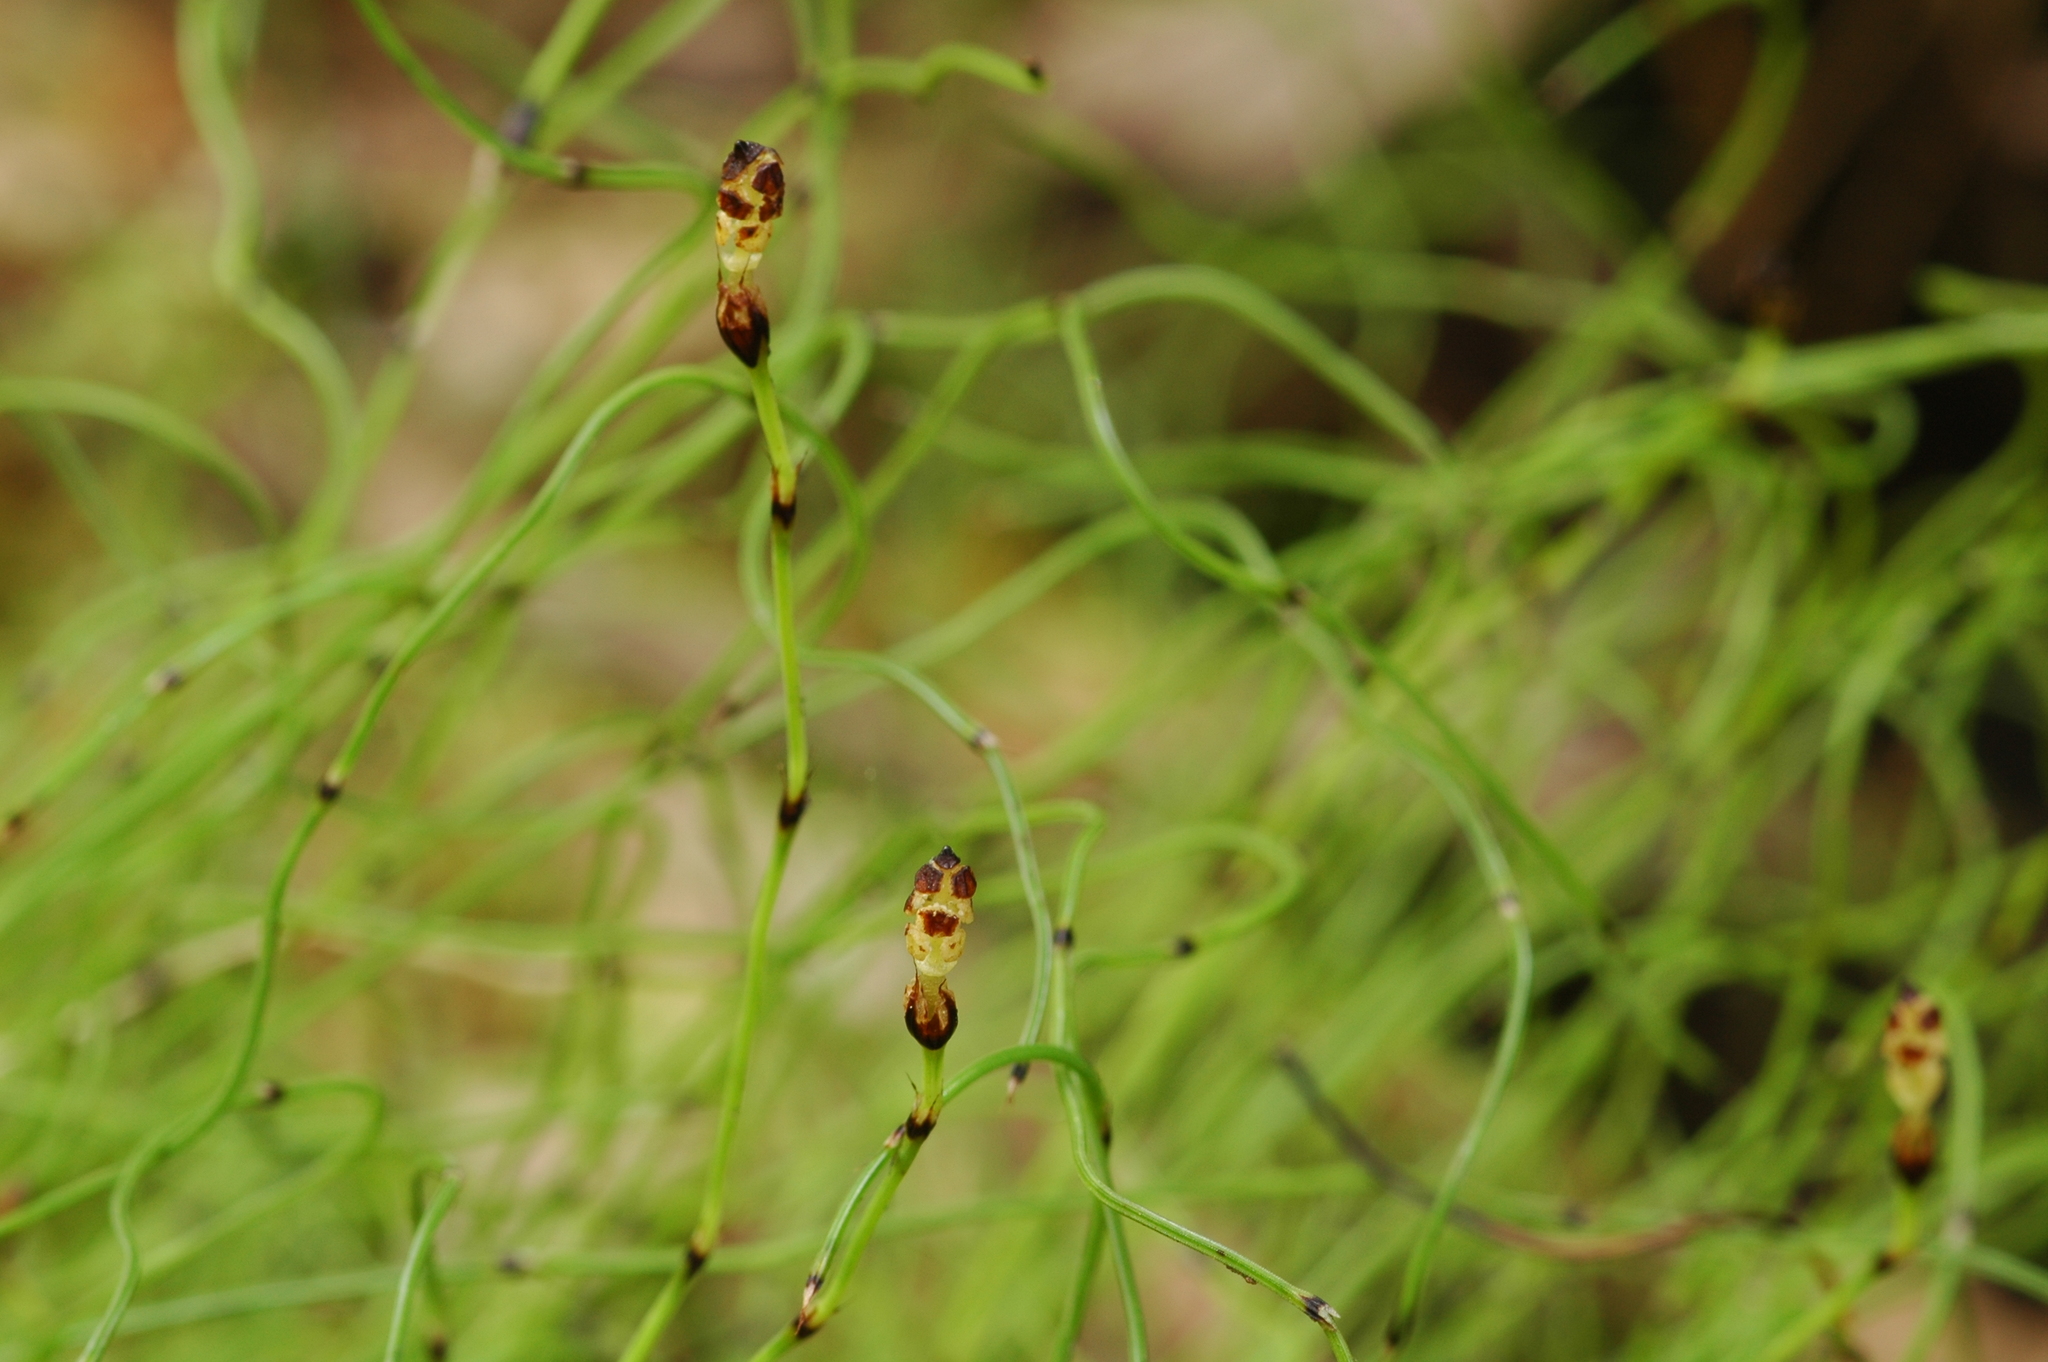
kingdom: Plantae
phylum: Tracheophyta
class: Polypodiopsida
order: Equisetales
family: Equisetaceae
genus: Equisetum
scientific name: Equisetum scirpoides
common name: Delicate horsetail
